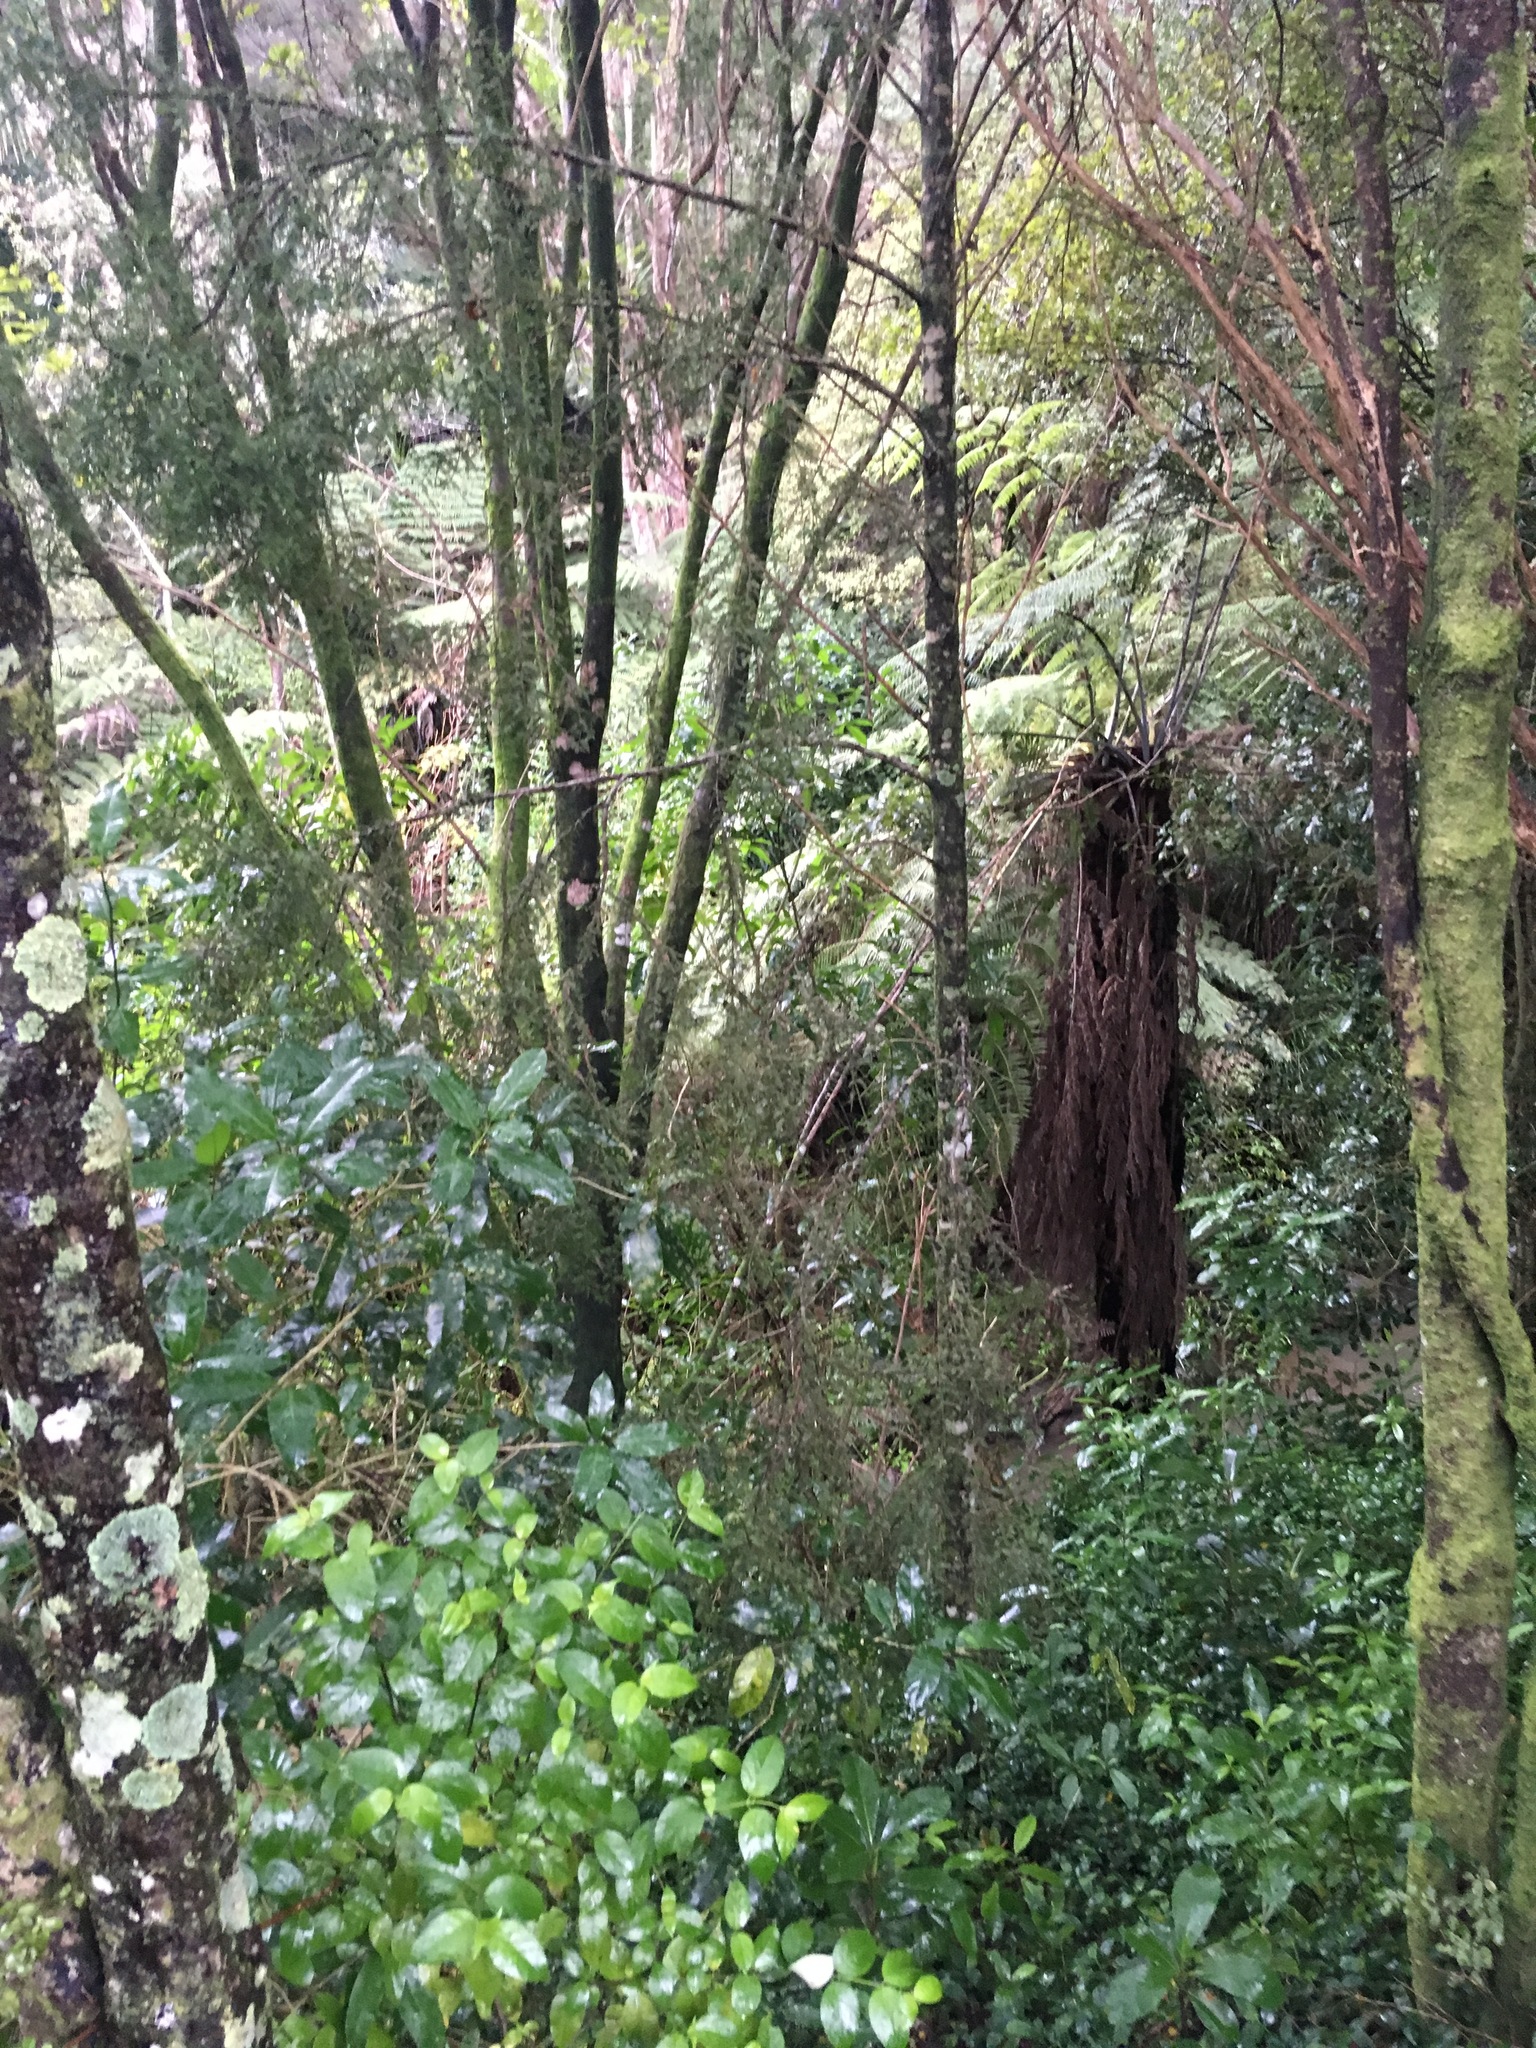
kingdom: Plantae
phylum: Tracheophyta
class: Magnoliopsida
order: Gentianales
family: Loganiaceae
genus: Geniostoma
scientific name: Geniostoma ligustrifolium
